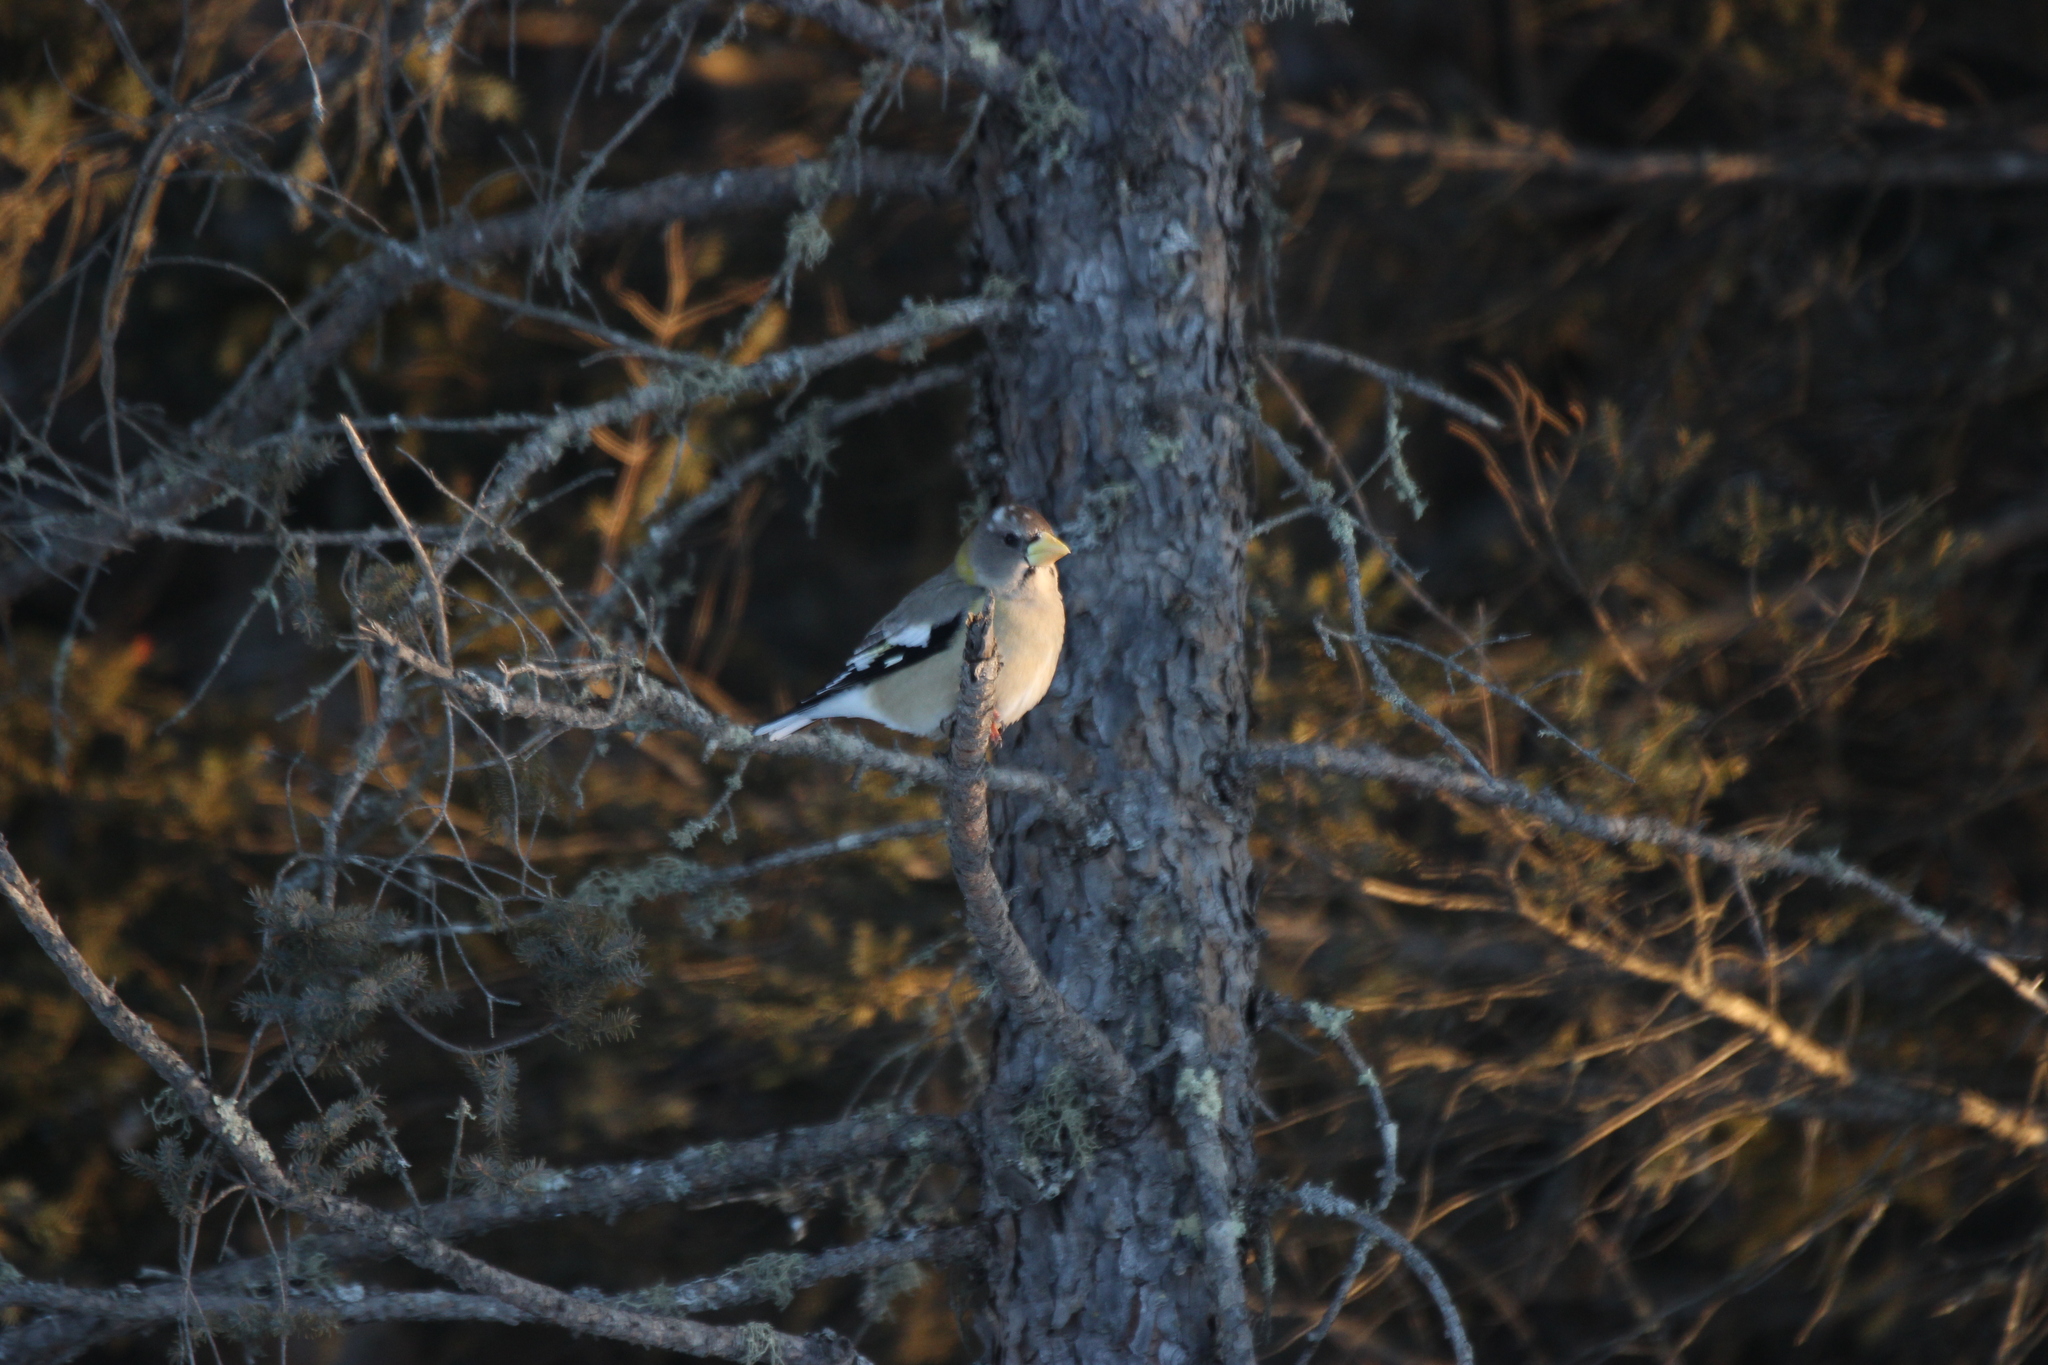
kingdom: Animalia
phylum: Chordata
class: Aves
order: Passeriformes
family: Fringillidae
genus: Hesperiphona
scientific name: Hesperiphona vespertina
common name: Evening grosbeak
